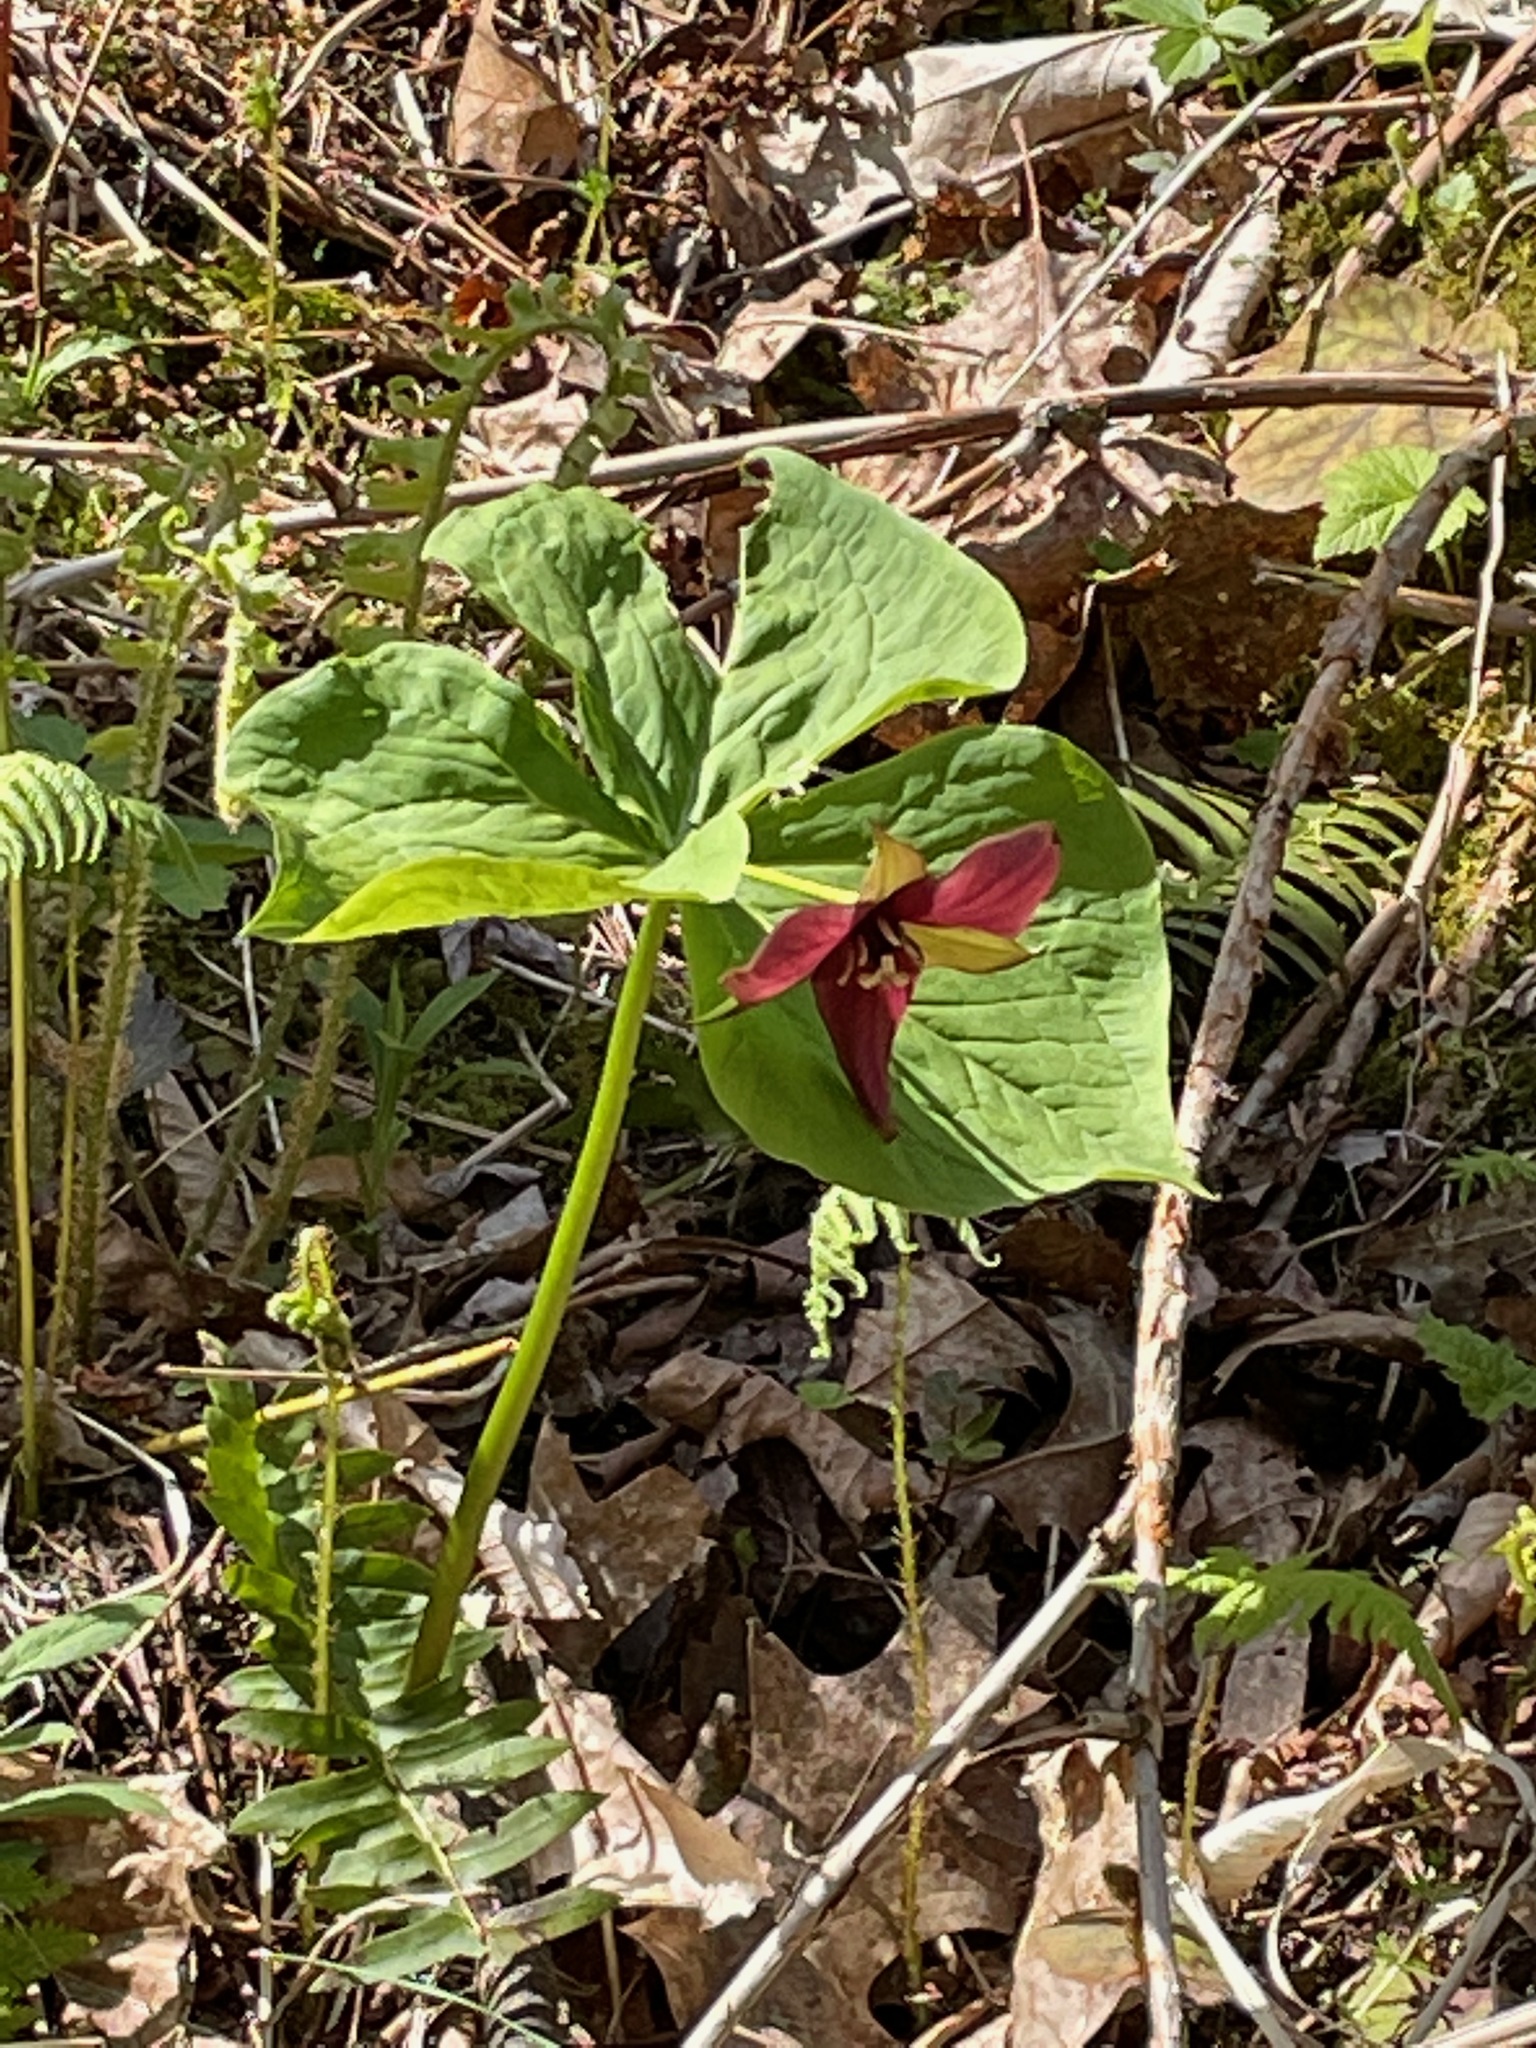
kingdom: Plantae
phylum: Tracheophyta
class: Liliopsida
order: Liliales
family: Melanthiaceae
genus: Trillium
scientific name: Trillium erectum
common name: Purple trillium
